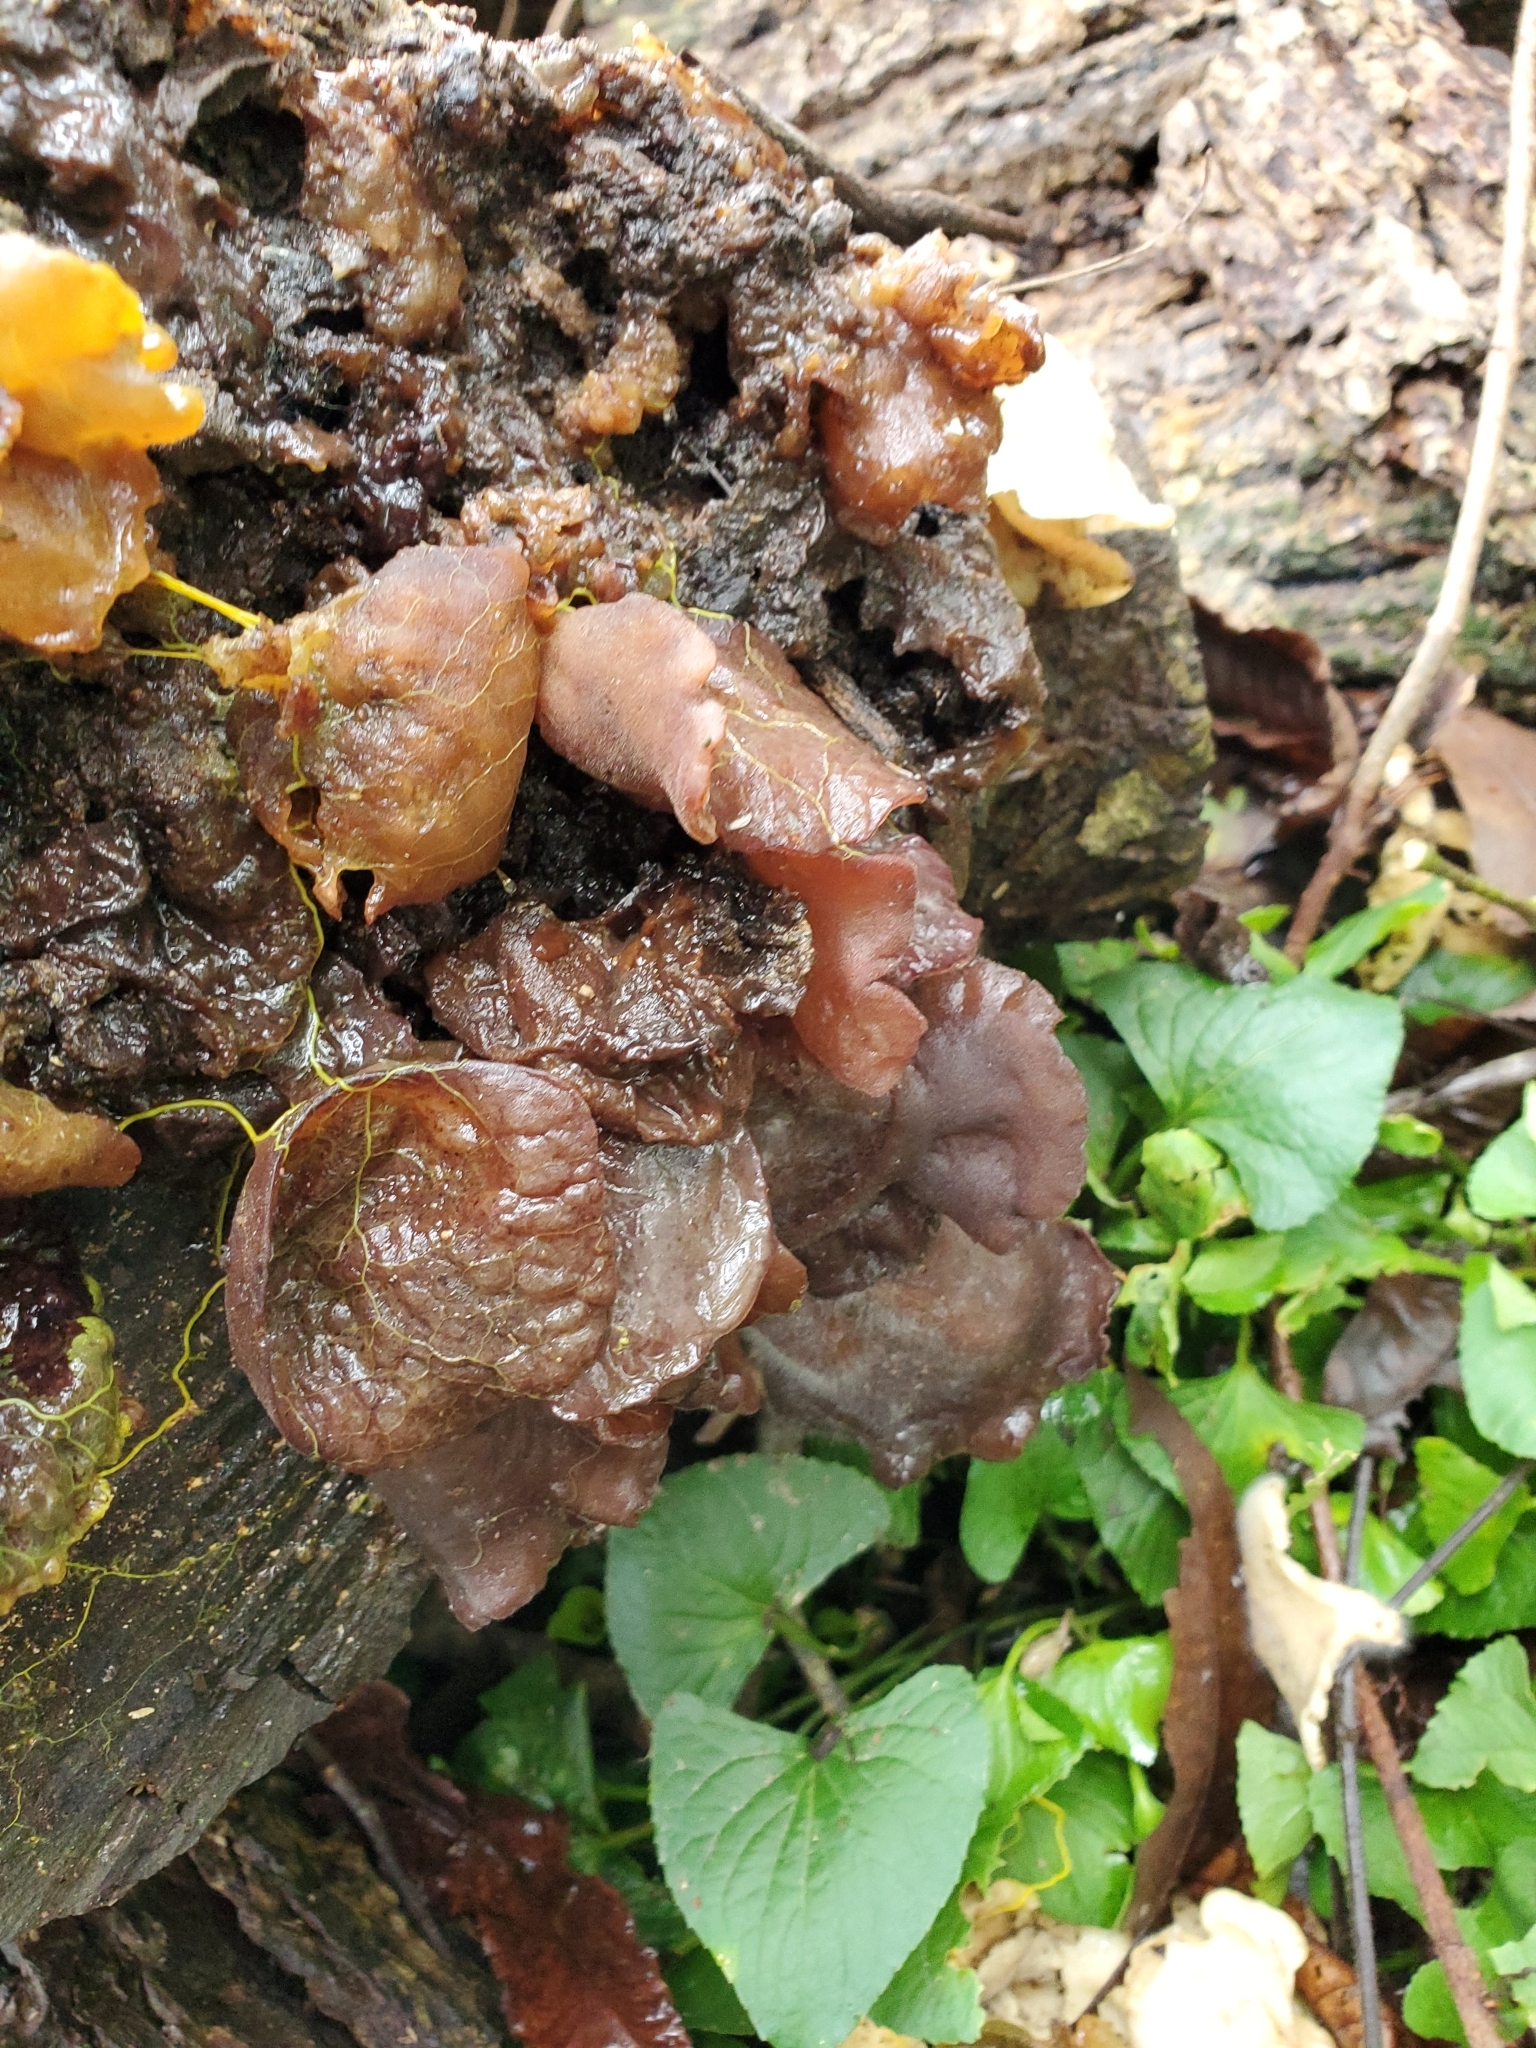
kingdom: Fungi
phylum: Basidiomycota
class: Agaricomycetes
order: Auriculariales
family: Auriculariaceae
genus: Auricularia
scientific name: Auricularia
